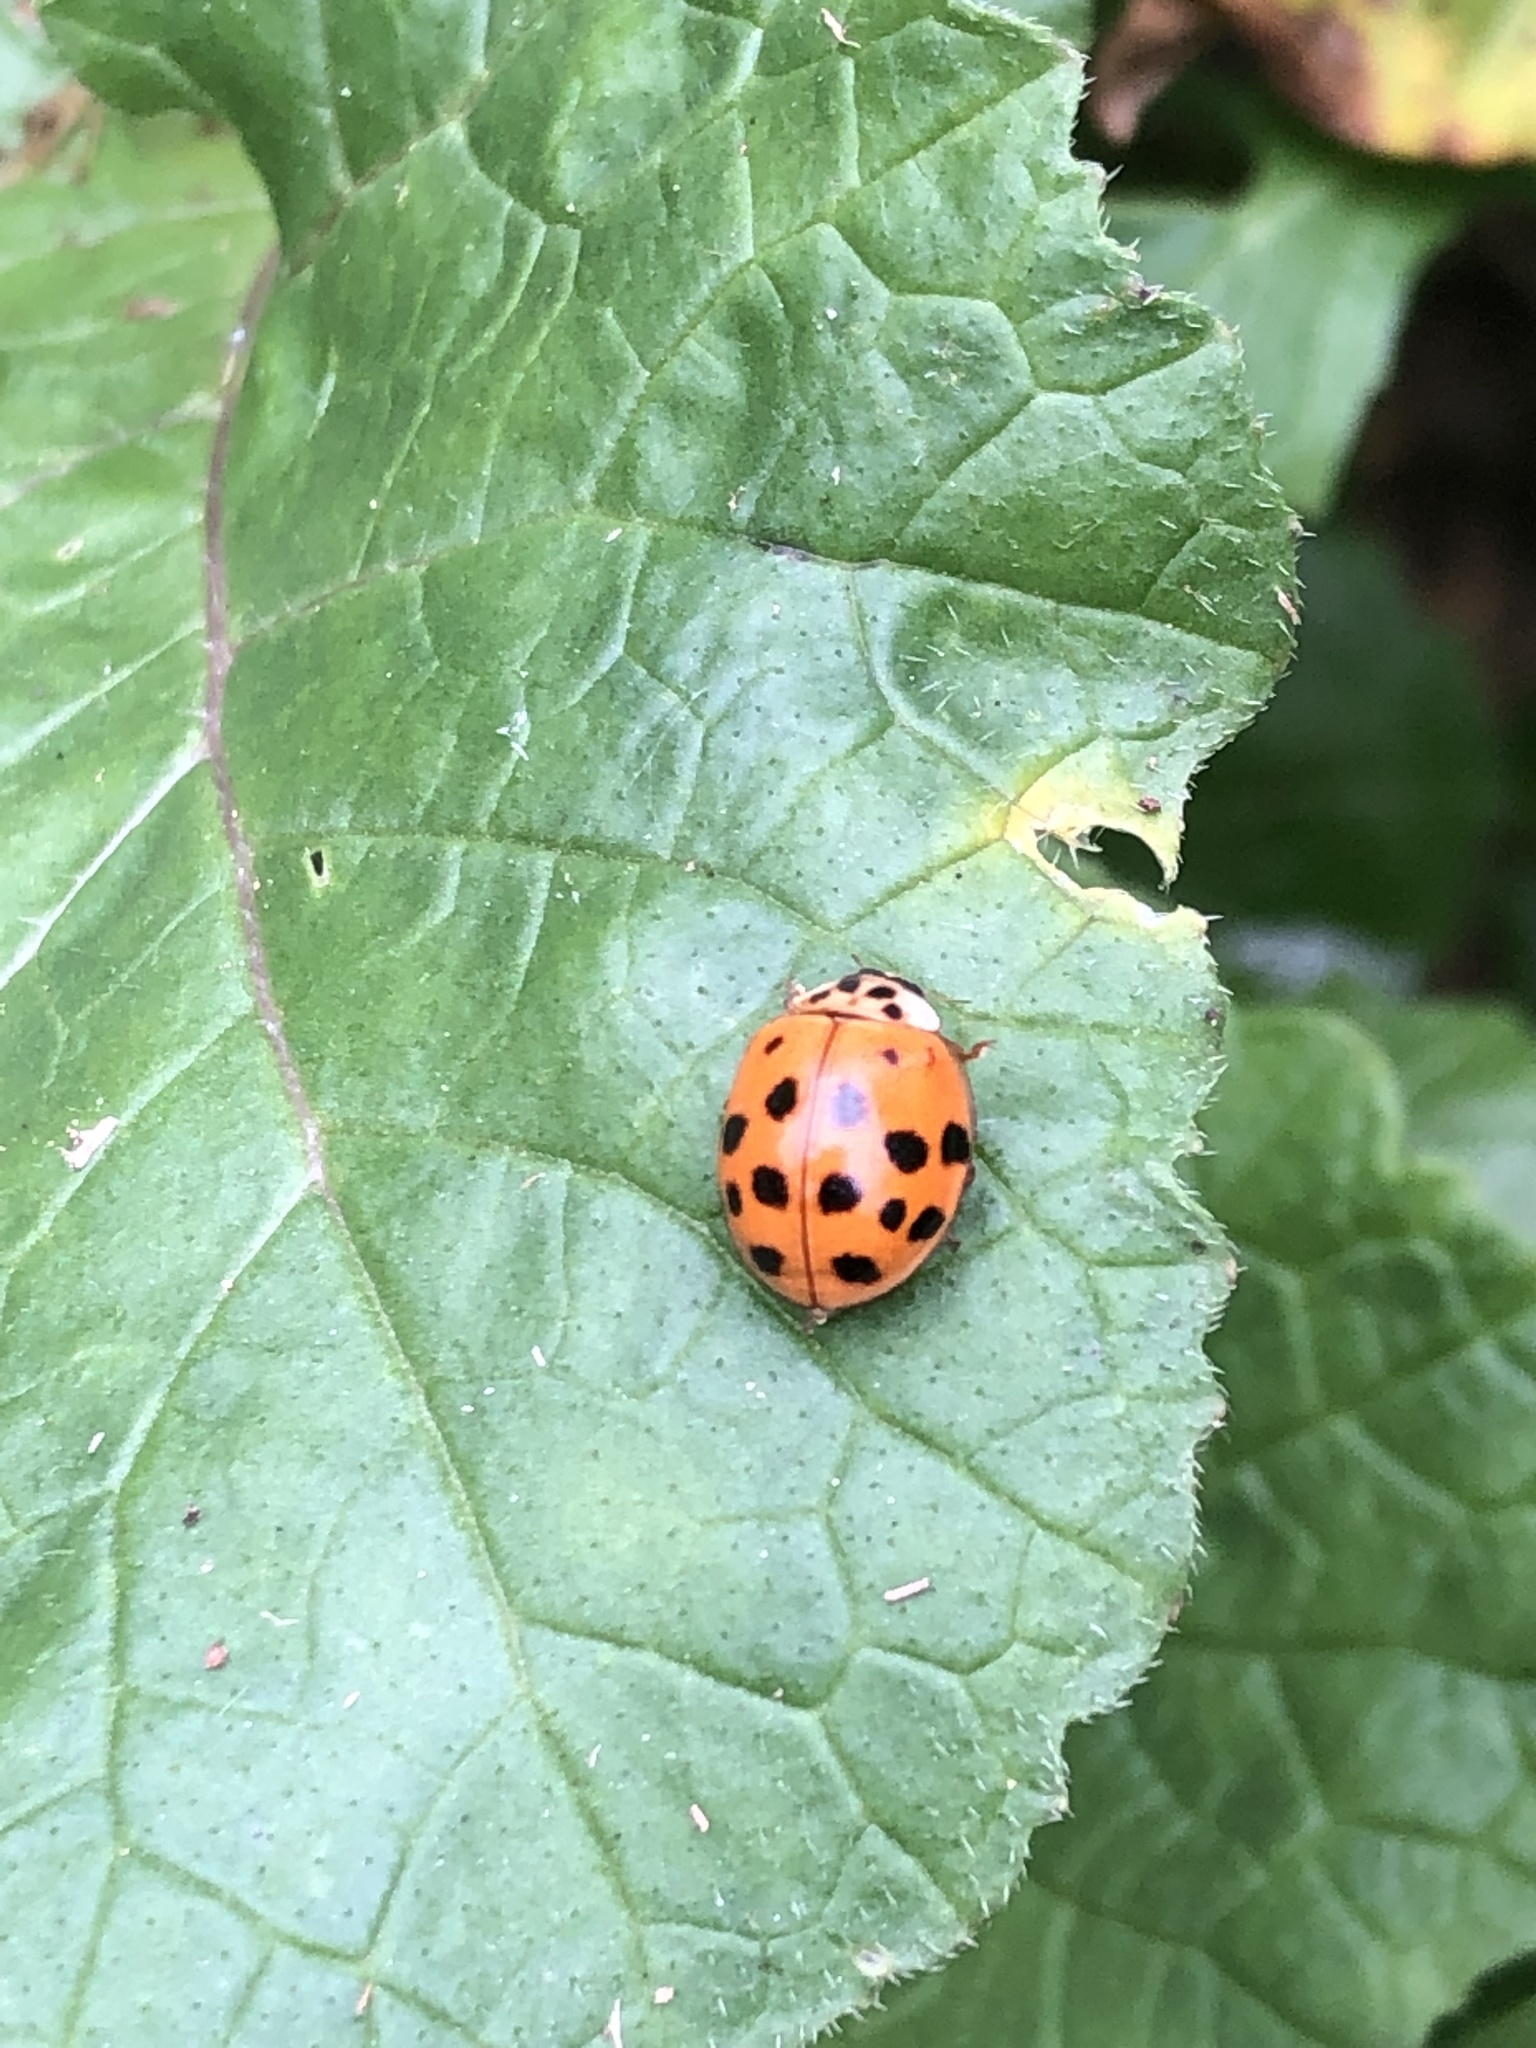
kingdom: Animalia
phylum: Arthropoda
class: Insecta
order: Coleoptera
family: Coccinellidae
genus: Harmonia
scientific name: Harmonia axyridis
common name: Harlequin ladybird
